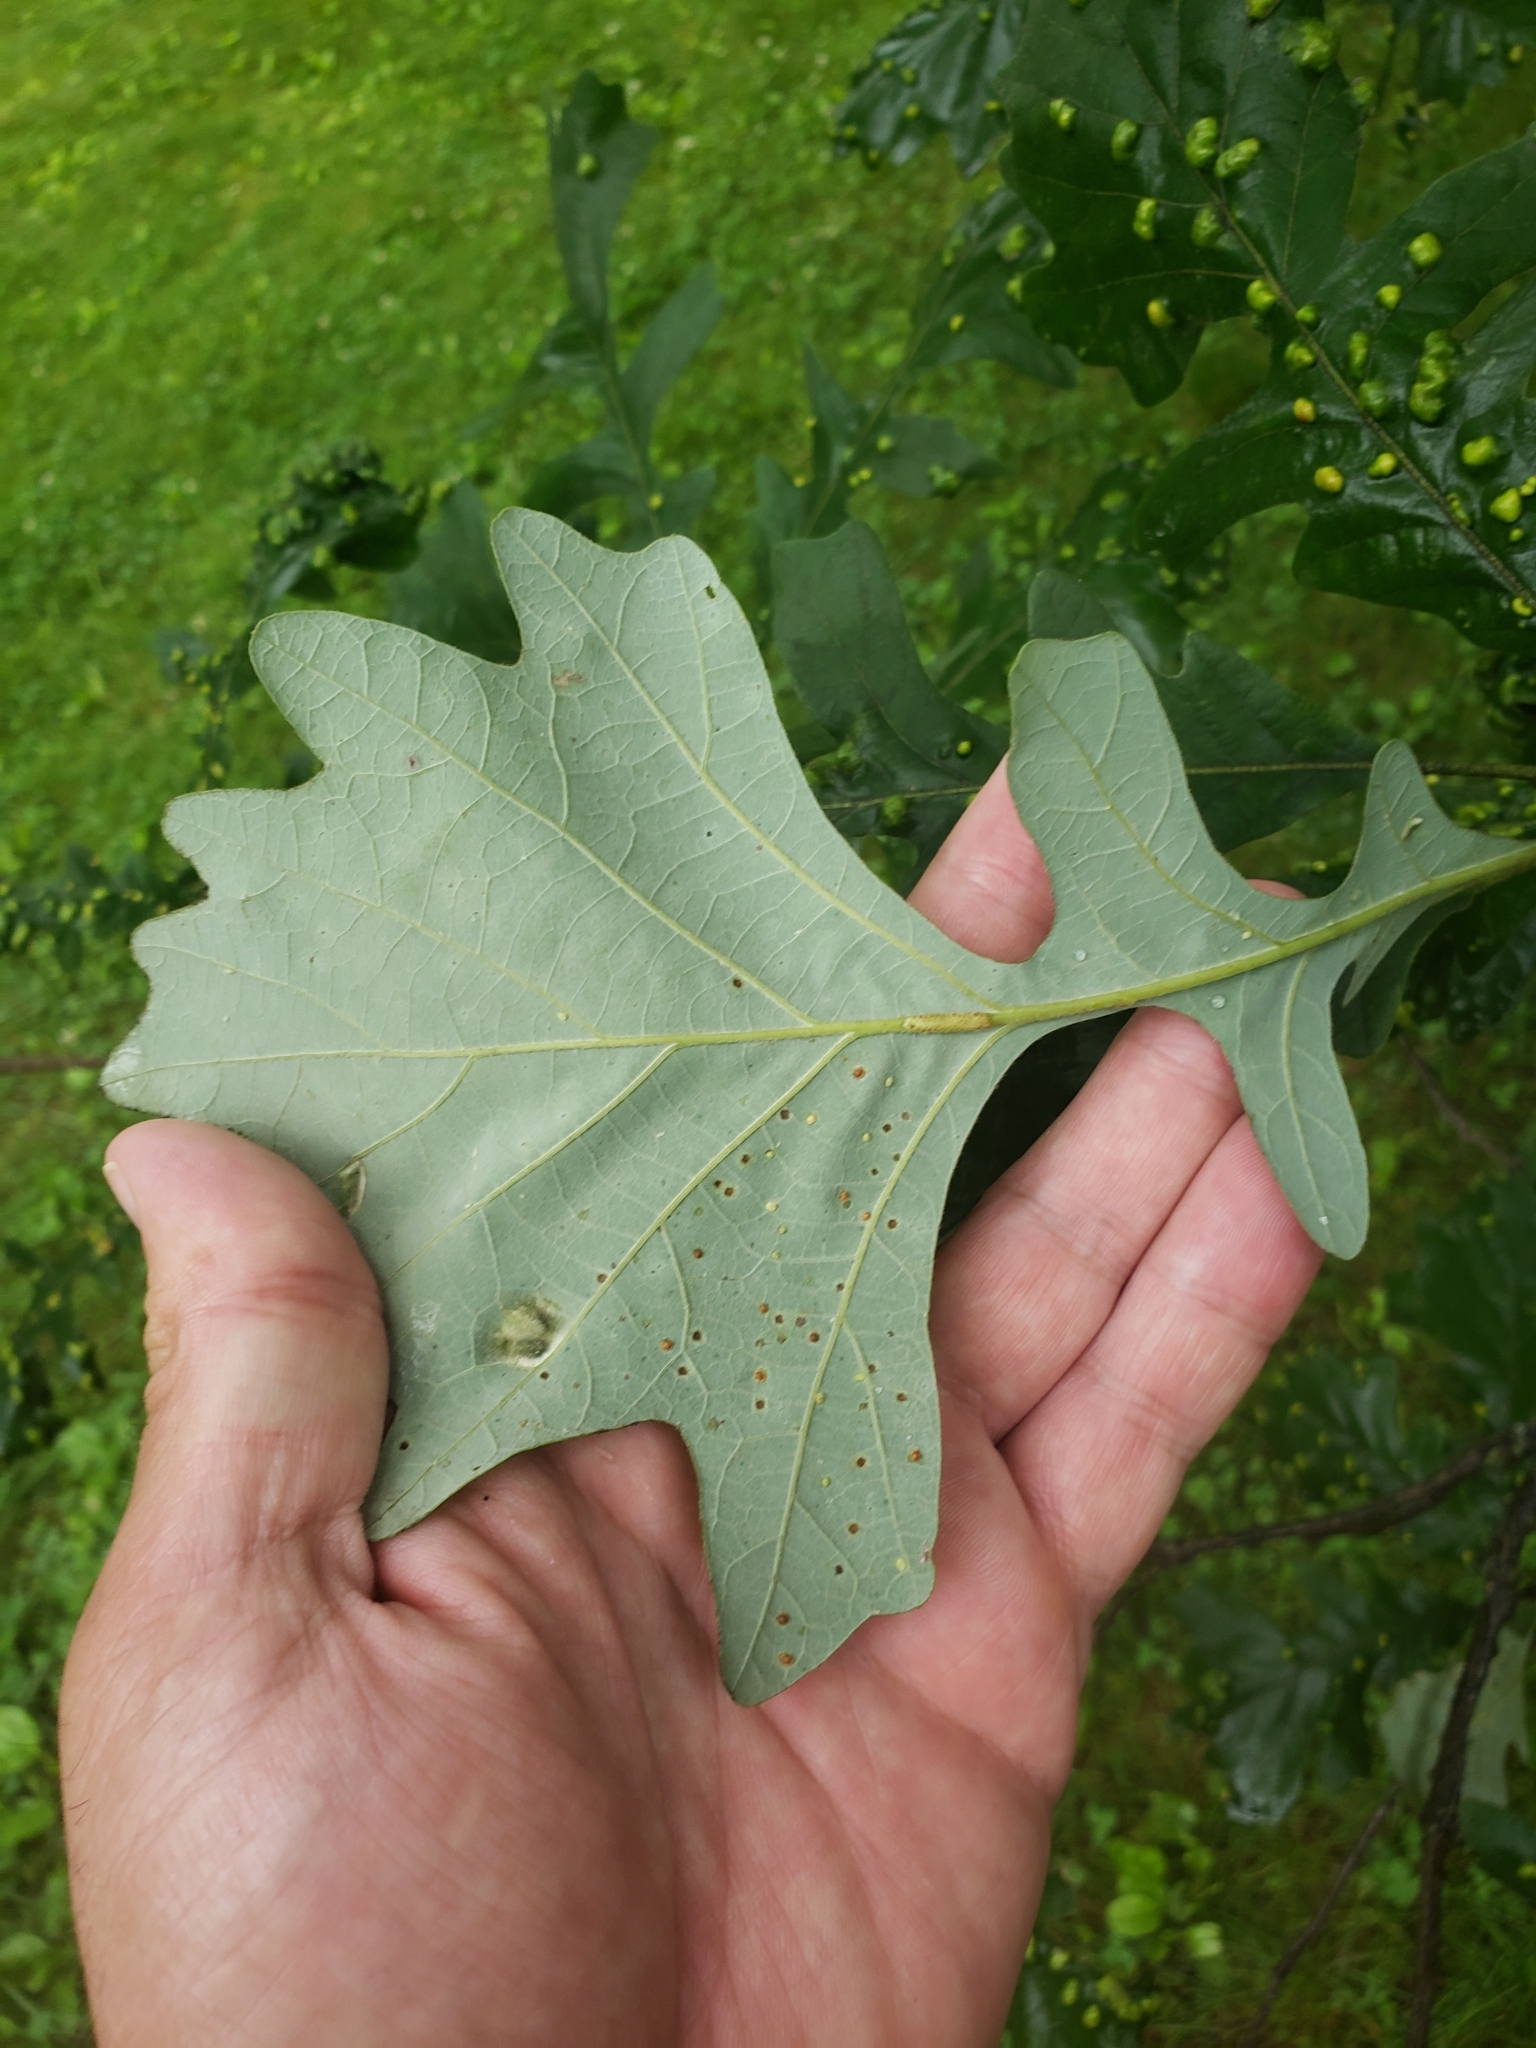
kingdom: Animalia
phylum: Arthropoda
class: Insecta
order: Hymenoptera
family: Cynipidae
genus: Neuroterus
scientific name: Neuroterus saltarius
